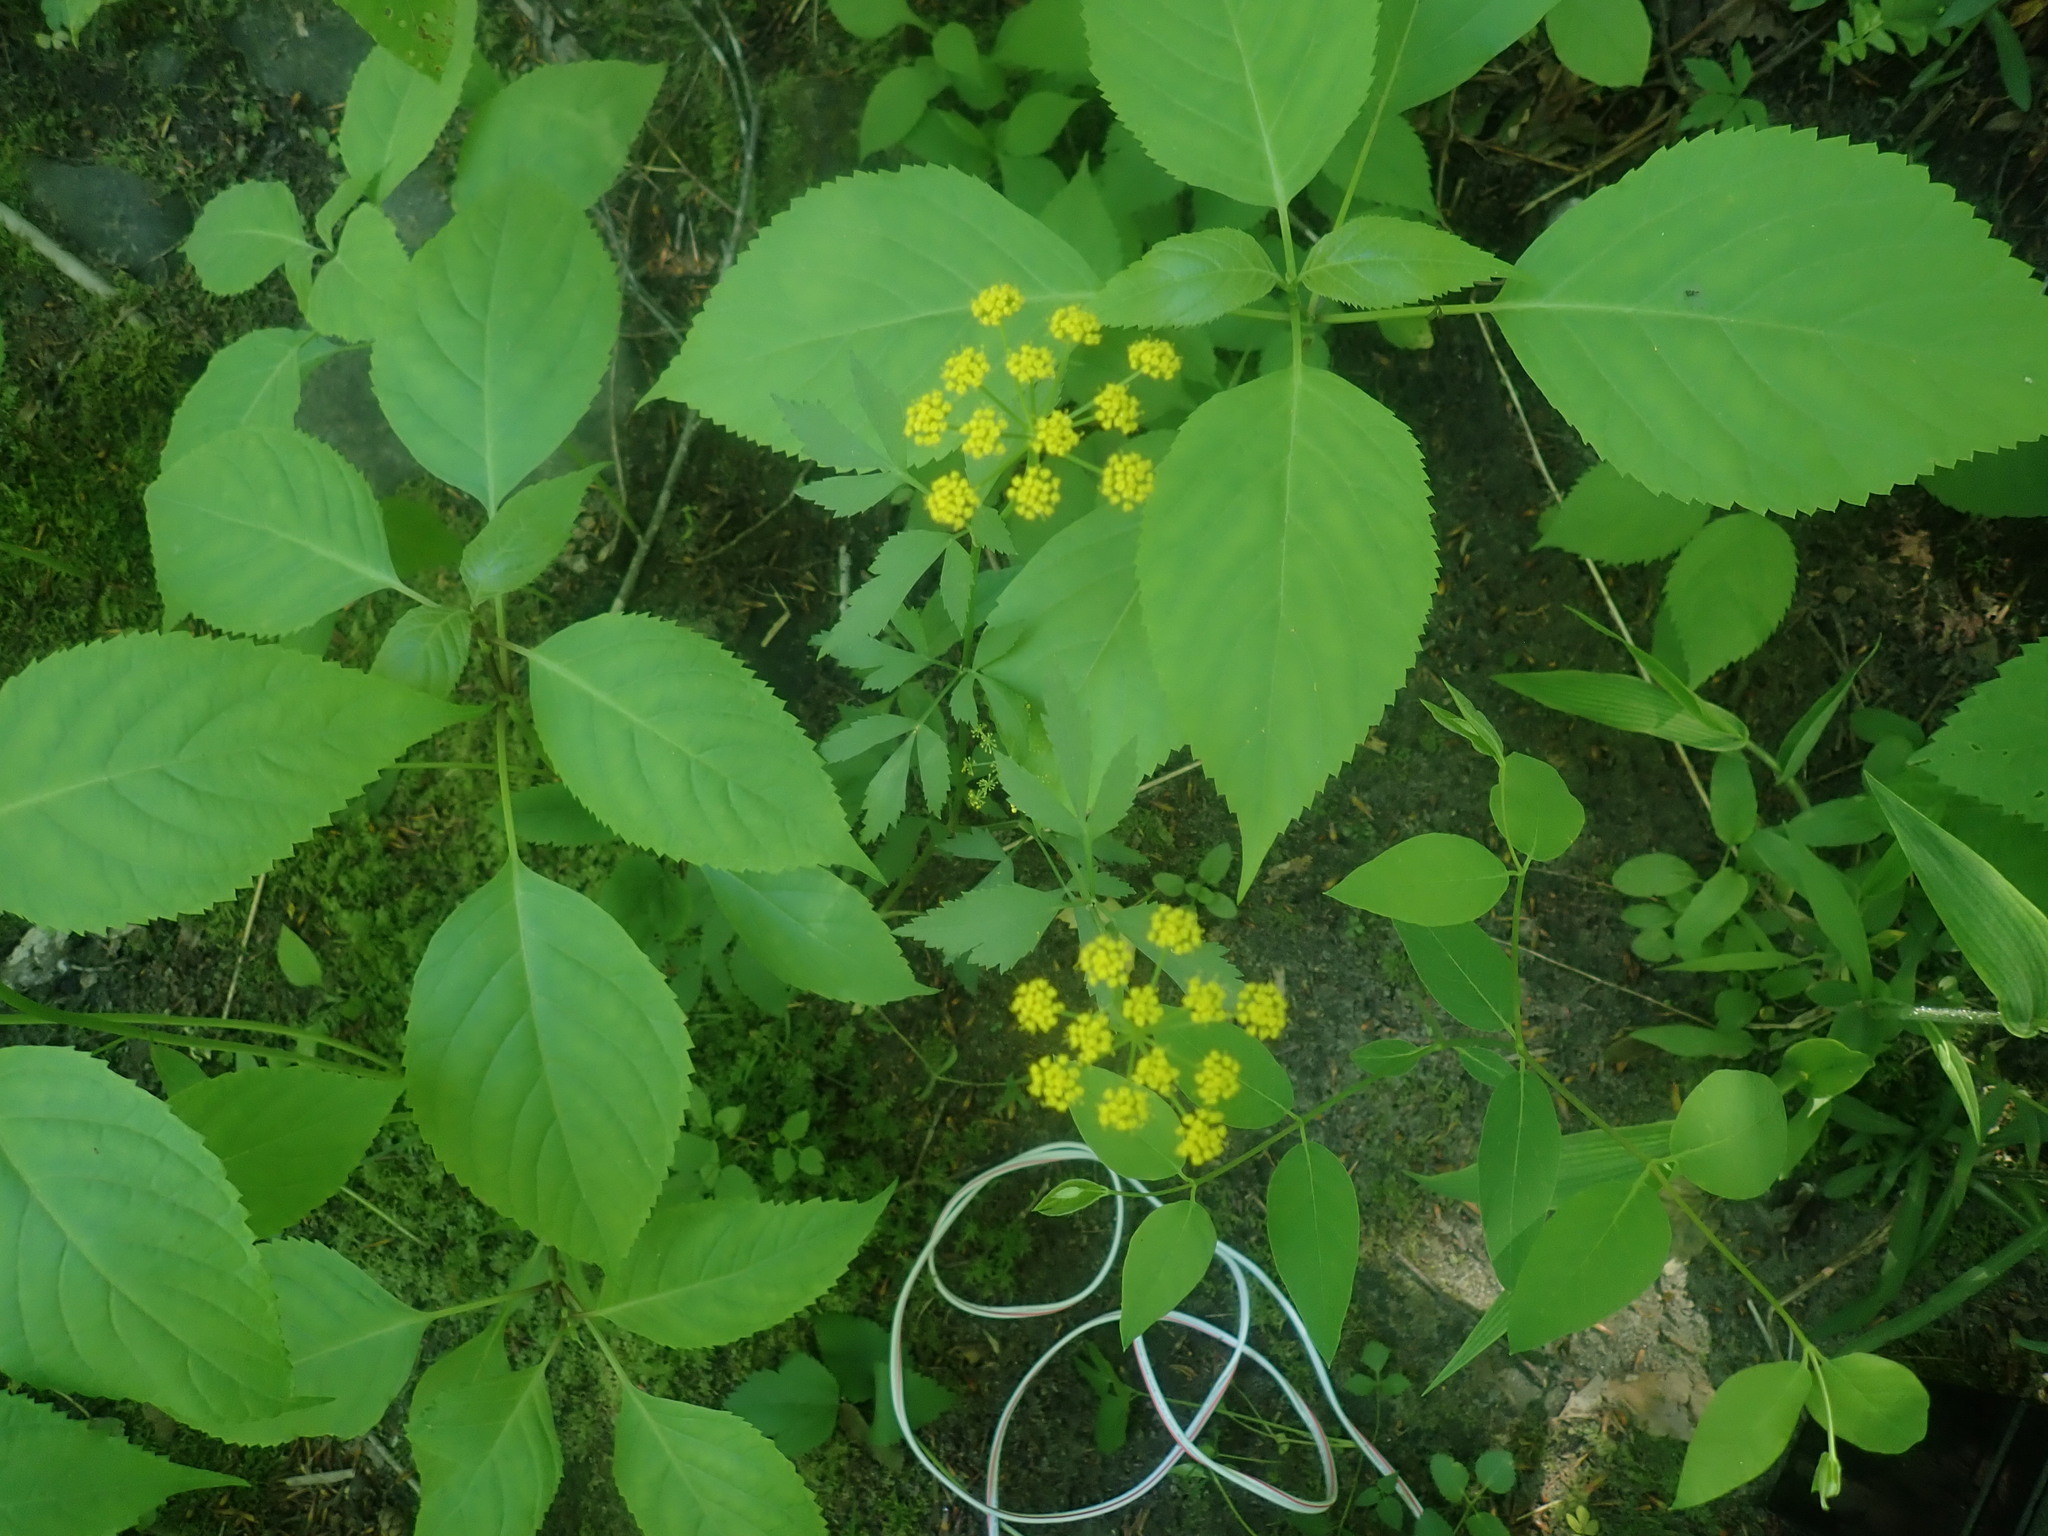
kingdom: Plantae
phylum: Tracheophyta
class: Magnoliopsida
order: Apiales
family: Apiaceae
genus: Zizia
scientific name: Zizia aurea
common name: Golden alexanders
